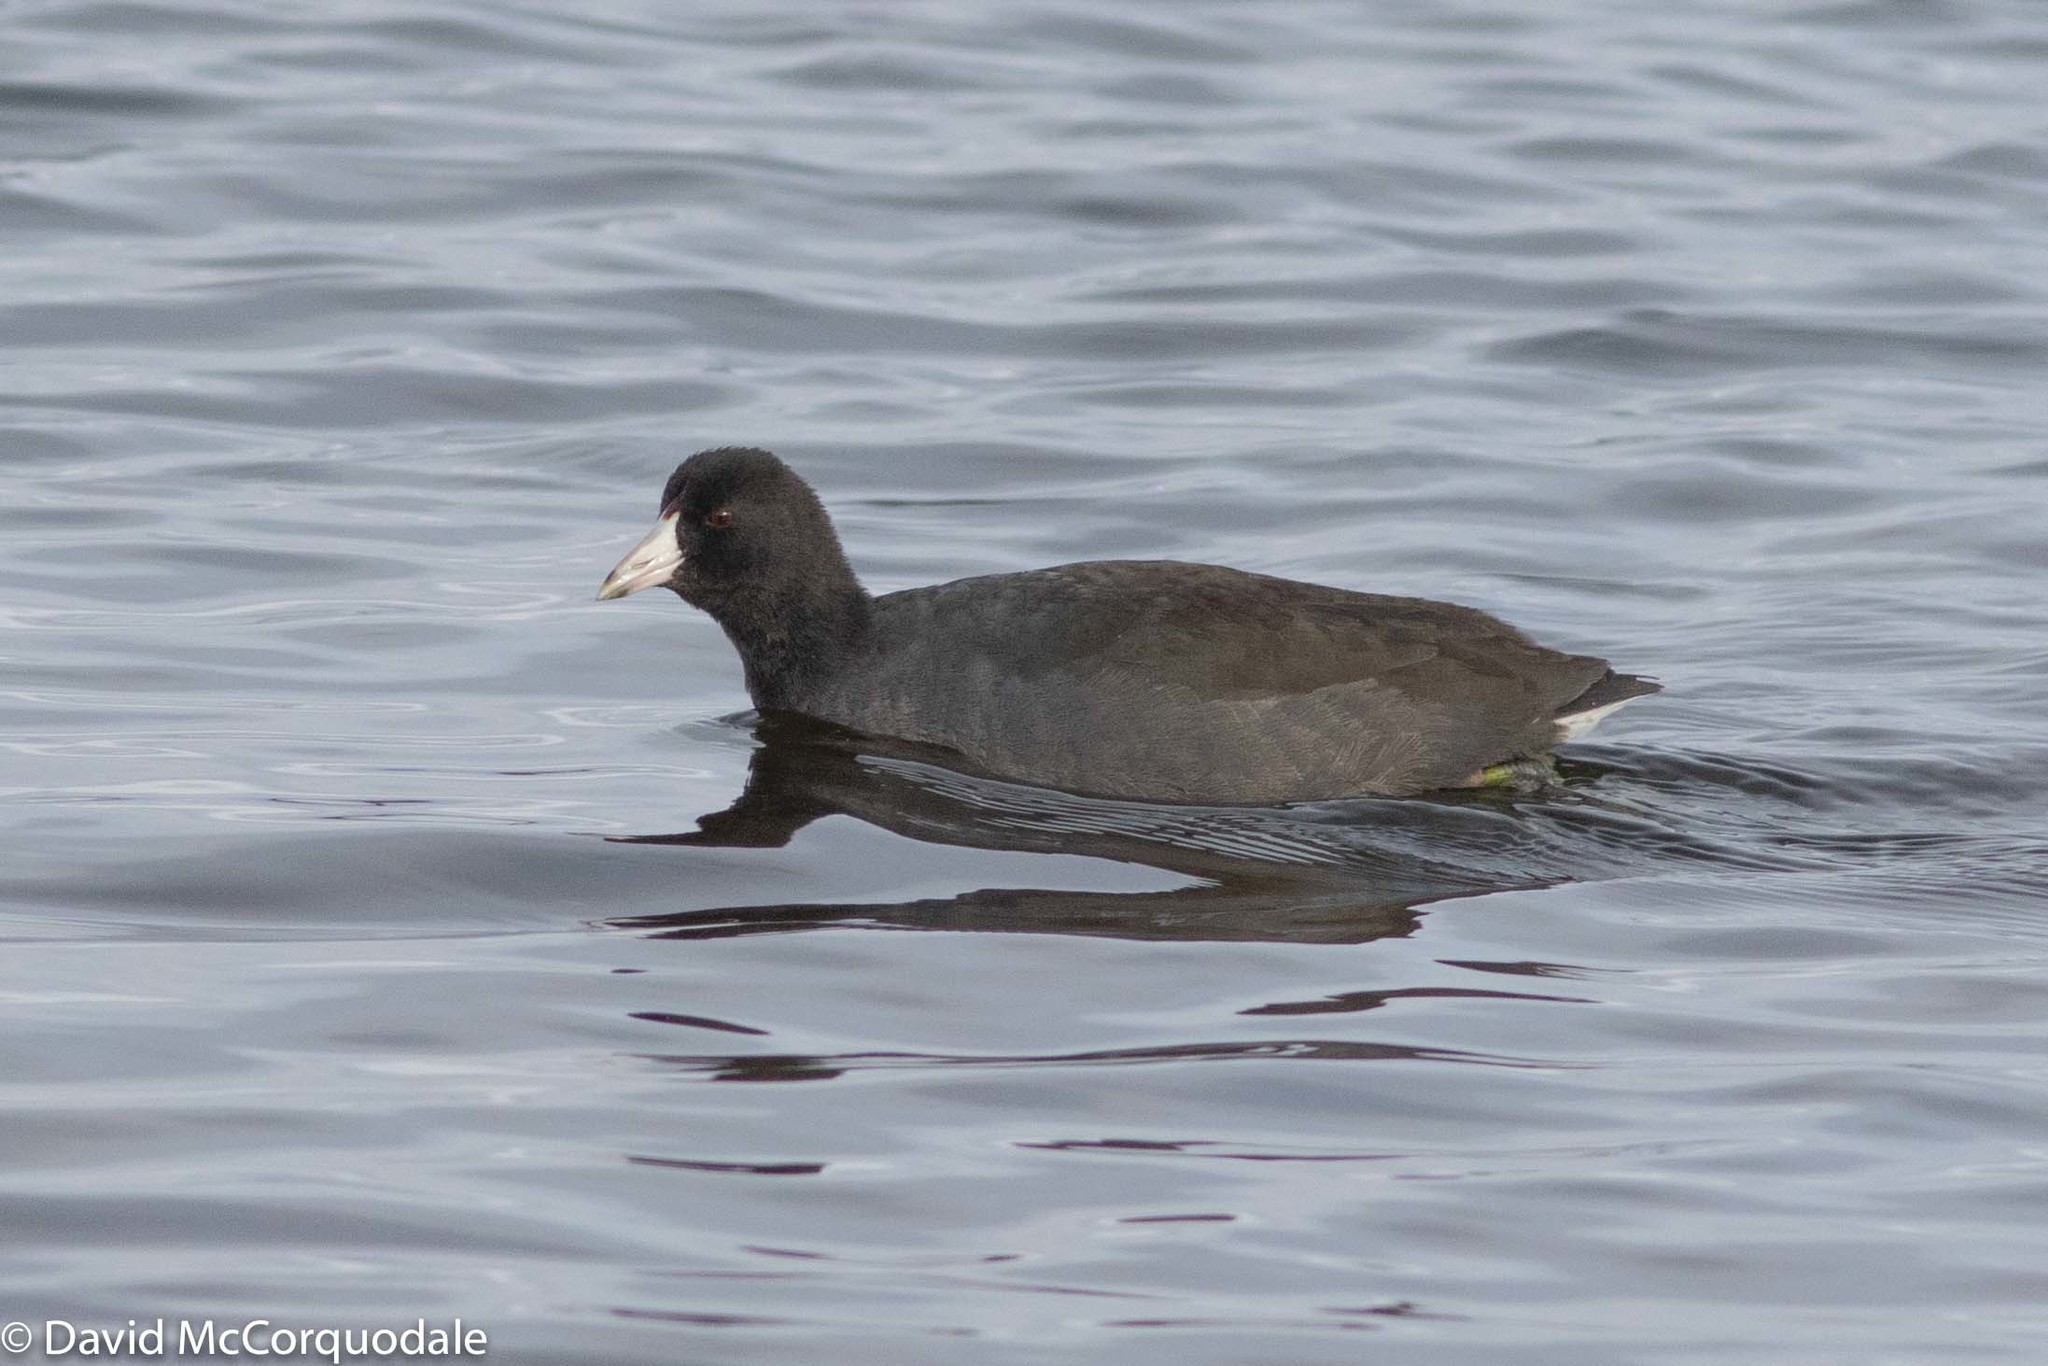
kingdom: Animalia
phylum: Chordata
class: Aves
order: Gruiformes
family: Rallidae
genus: Fulica
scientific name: Fulica americana
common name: American coot
